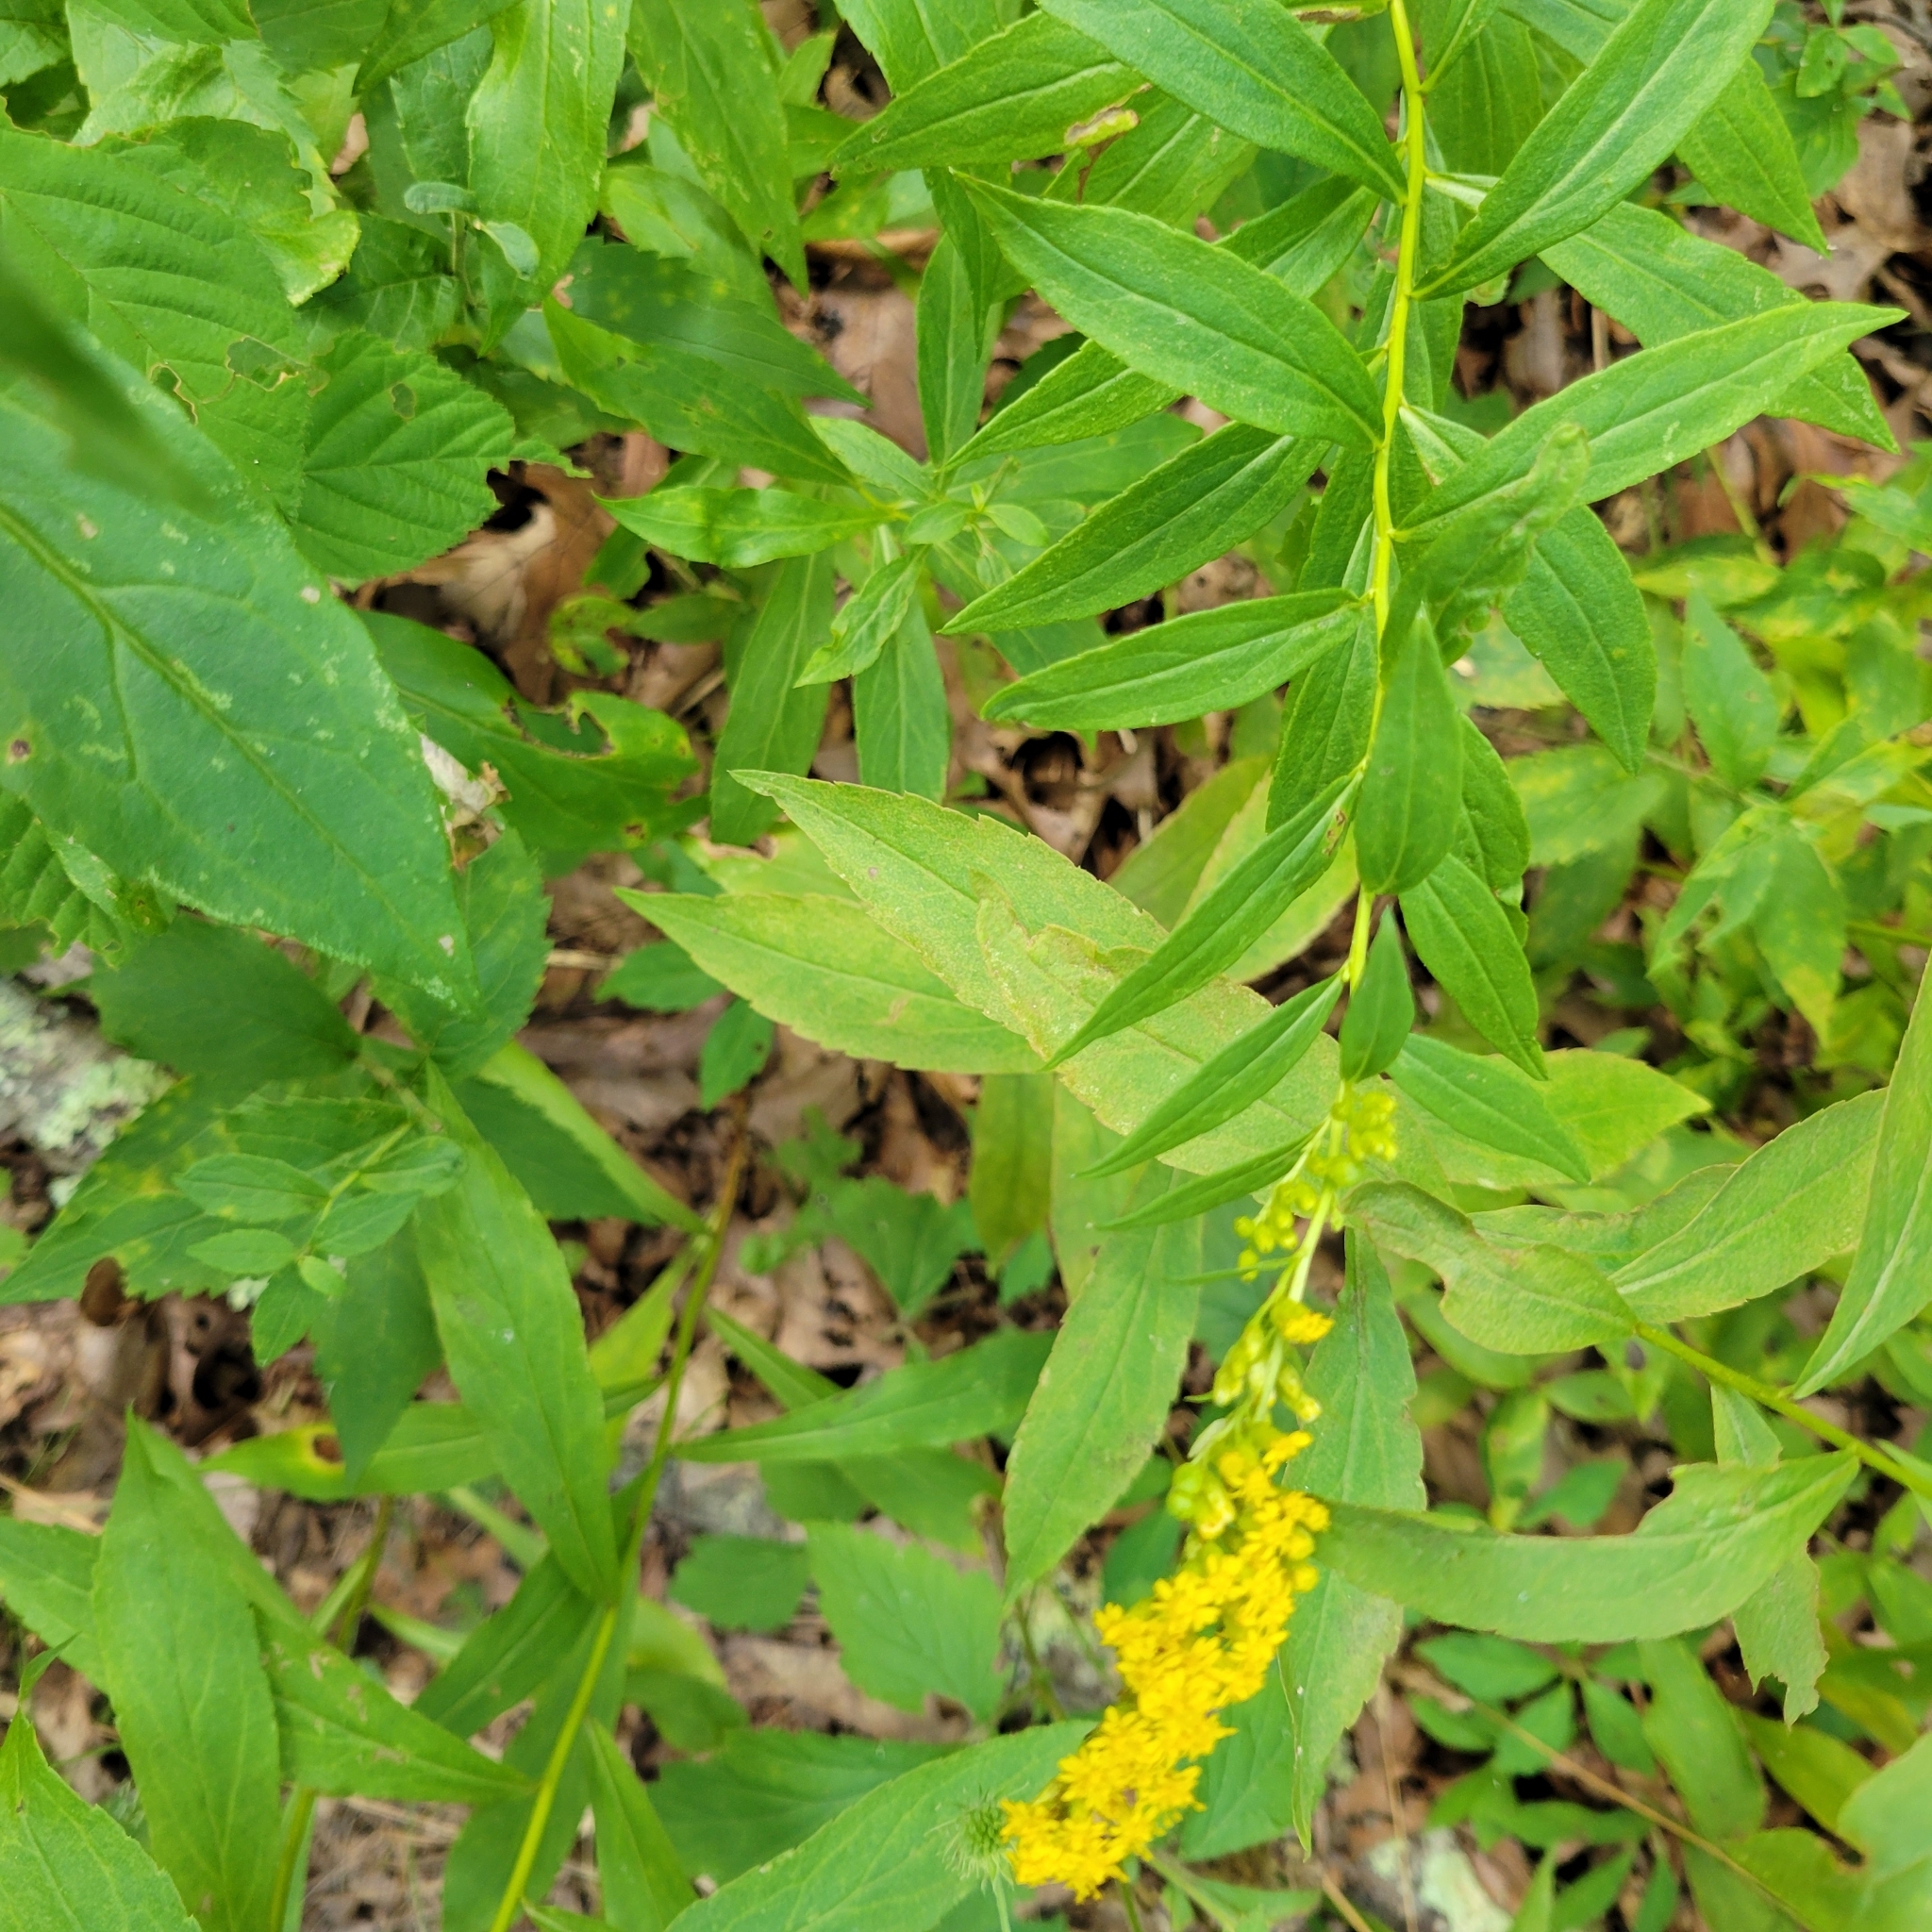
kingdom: Plantae
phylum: Tracheophyta
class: Magnoliopsida
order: Asterales
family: Asteraceae
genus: Solidago
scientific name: Solidago latissimifolia
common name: Elliott's goldenrod
